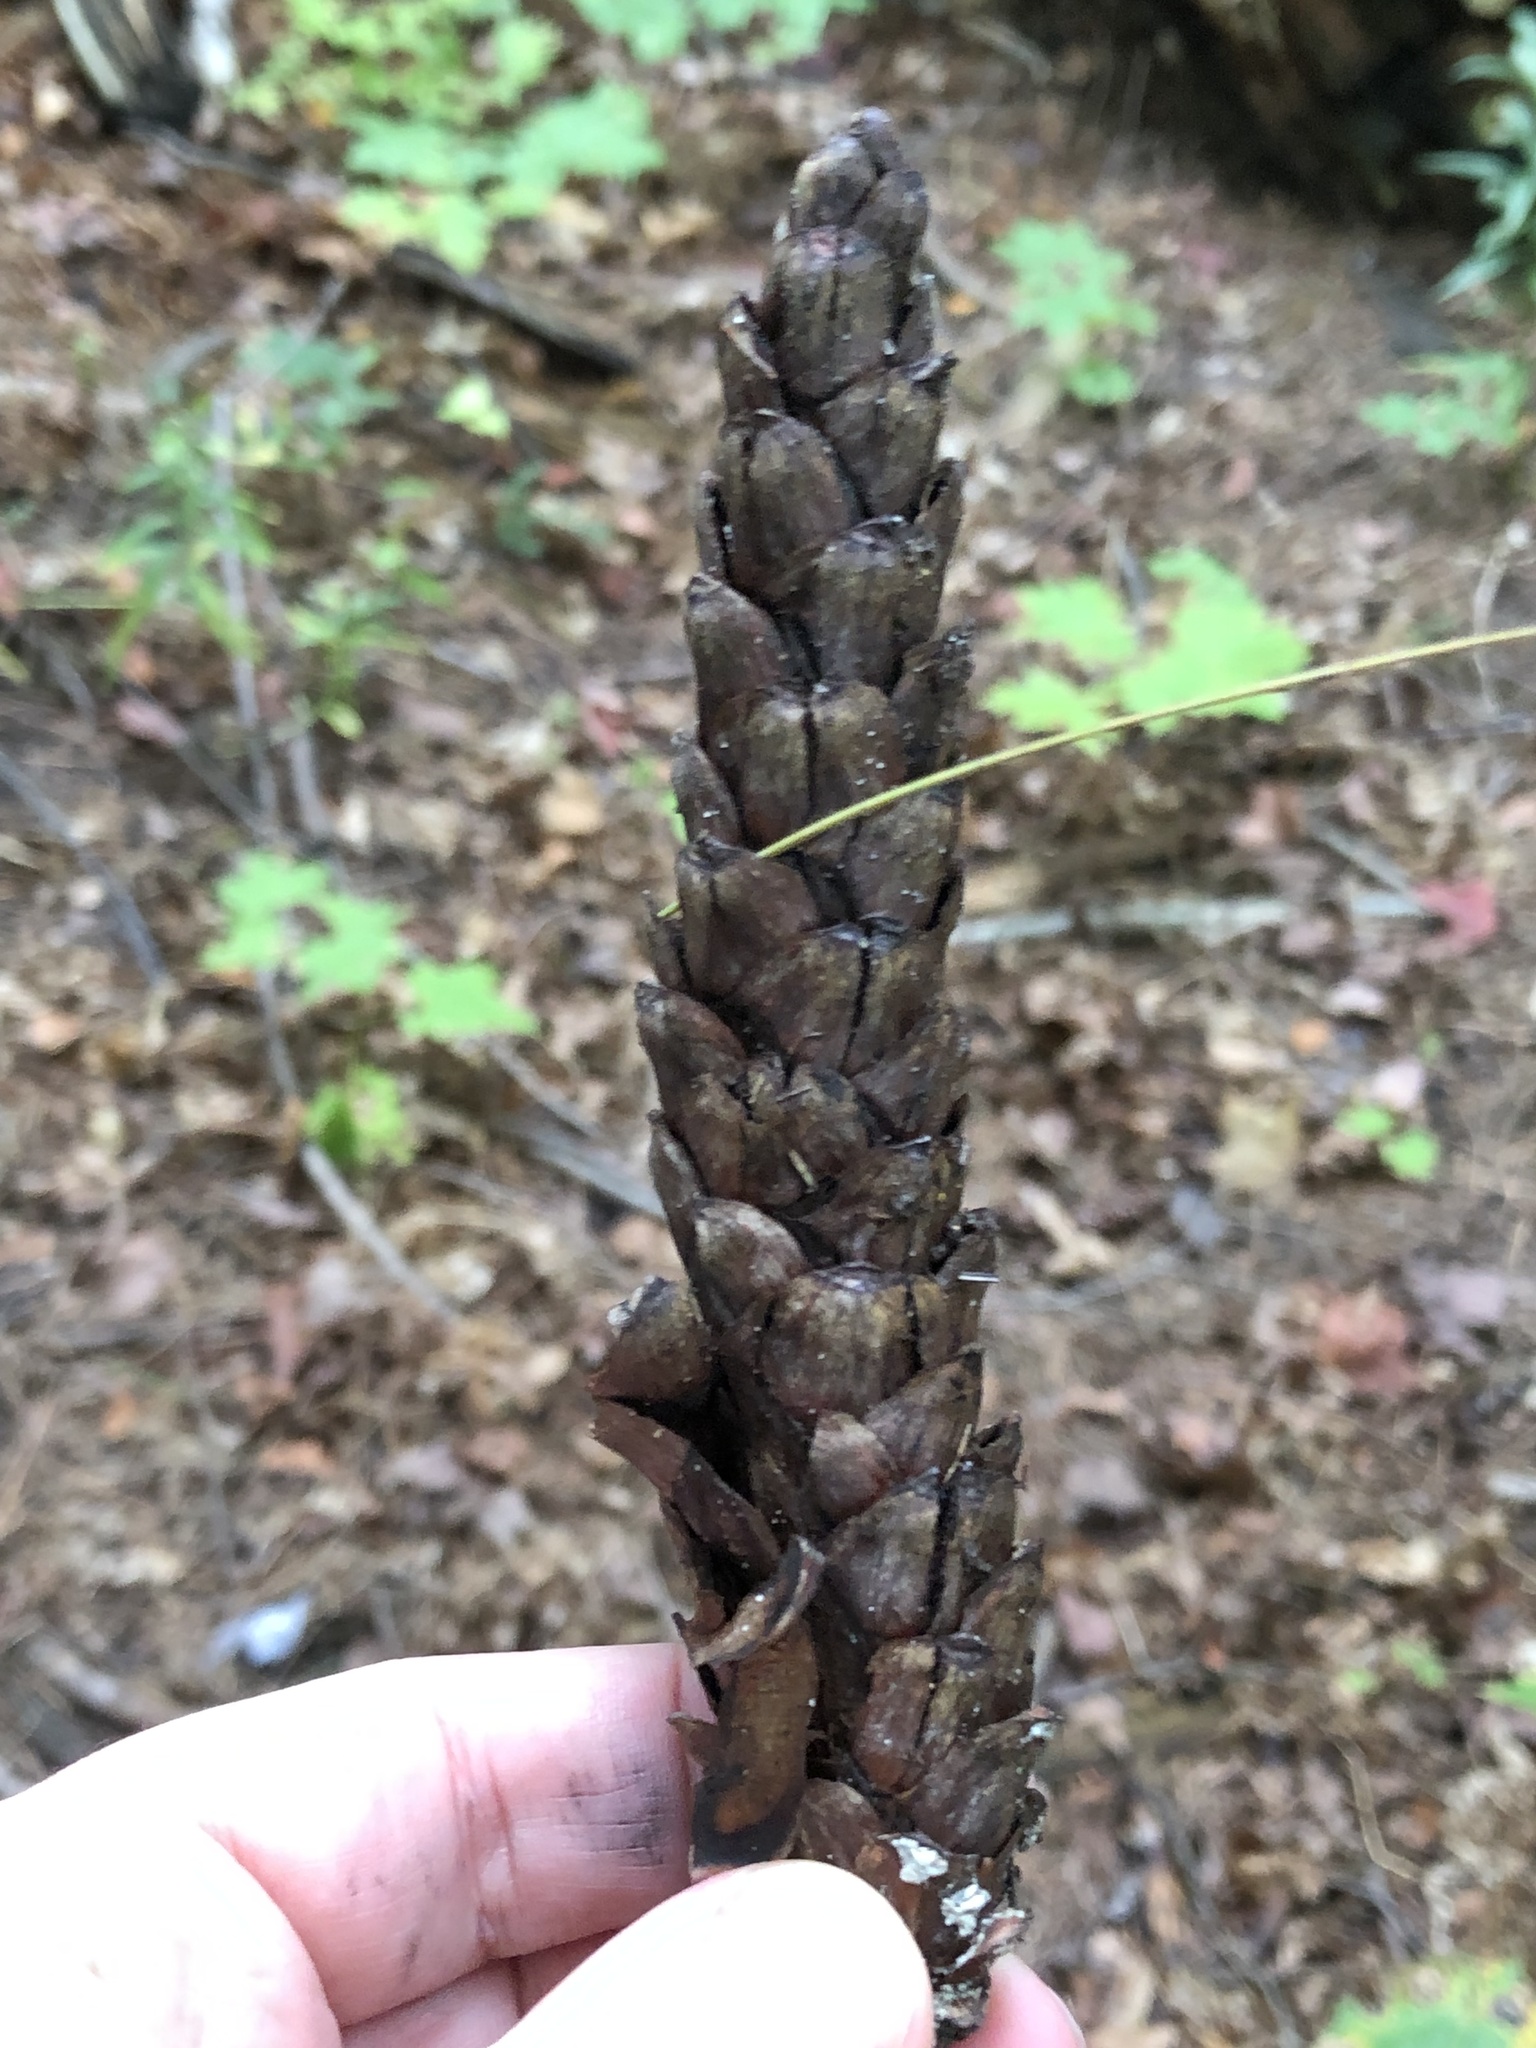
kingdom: Plantae
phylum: Tracheophyta
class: Pinopsida
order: Pinales
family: Pinaceae
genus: Pinus
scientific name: Pinus strobus
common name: Weymouth pine
